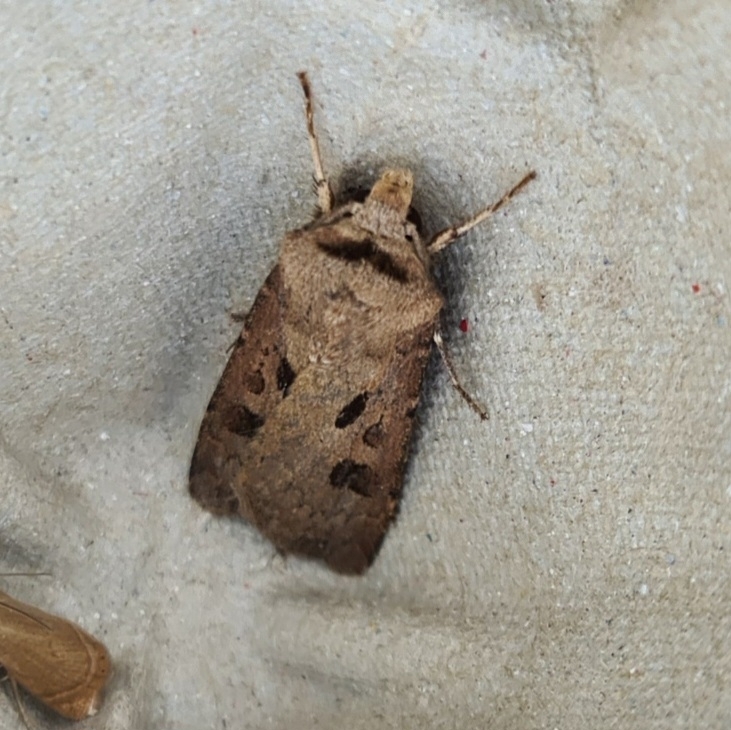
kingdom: Animalia
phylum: Arthropoda
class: Insecta
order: Lepidoptera
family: Noctuidae
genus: Agrotis
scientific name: Agrotis exclamationis
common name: Heart and dart
